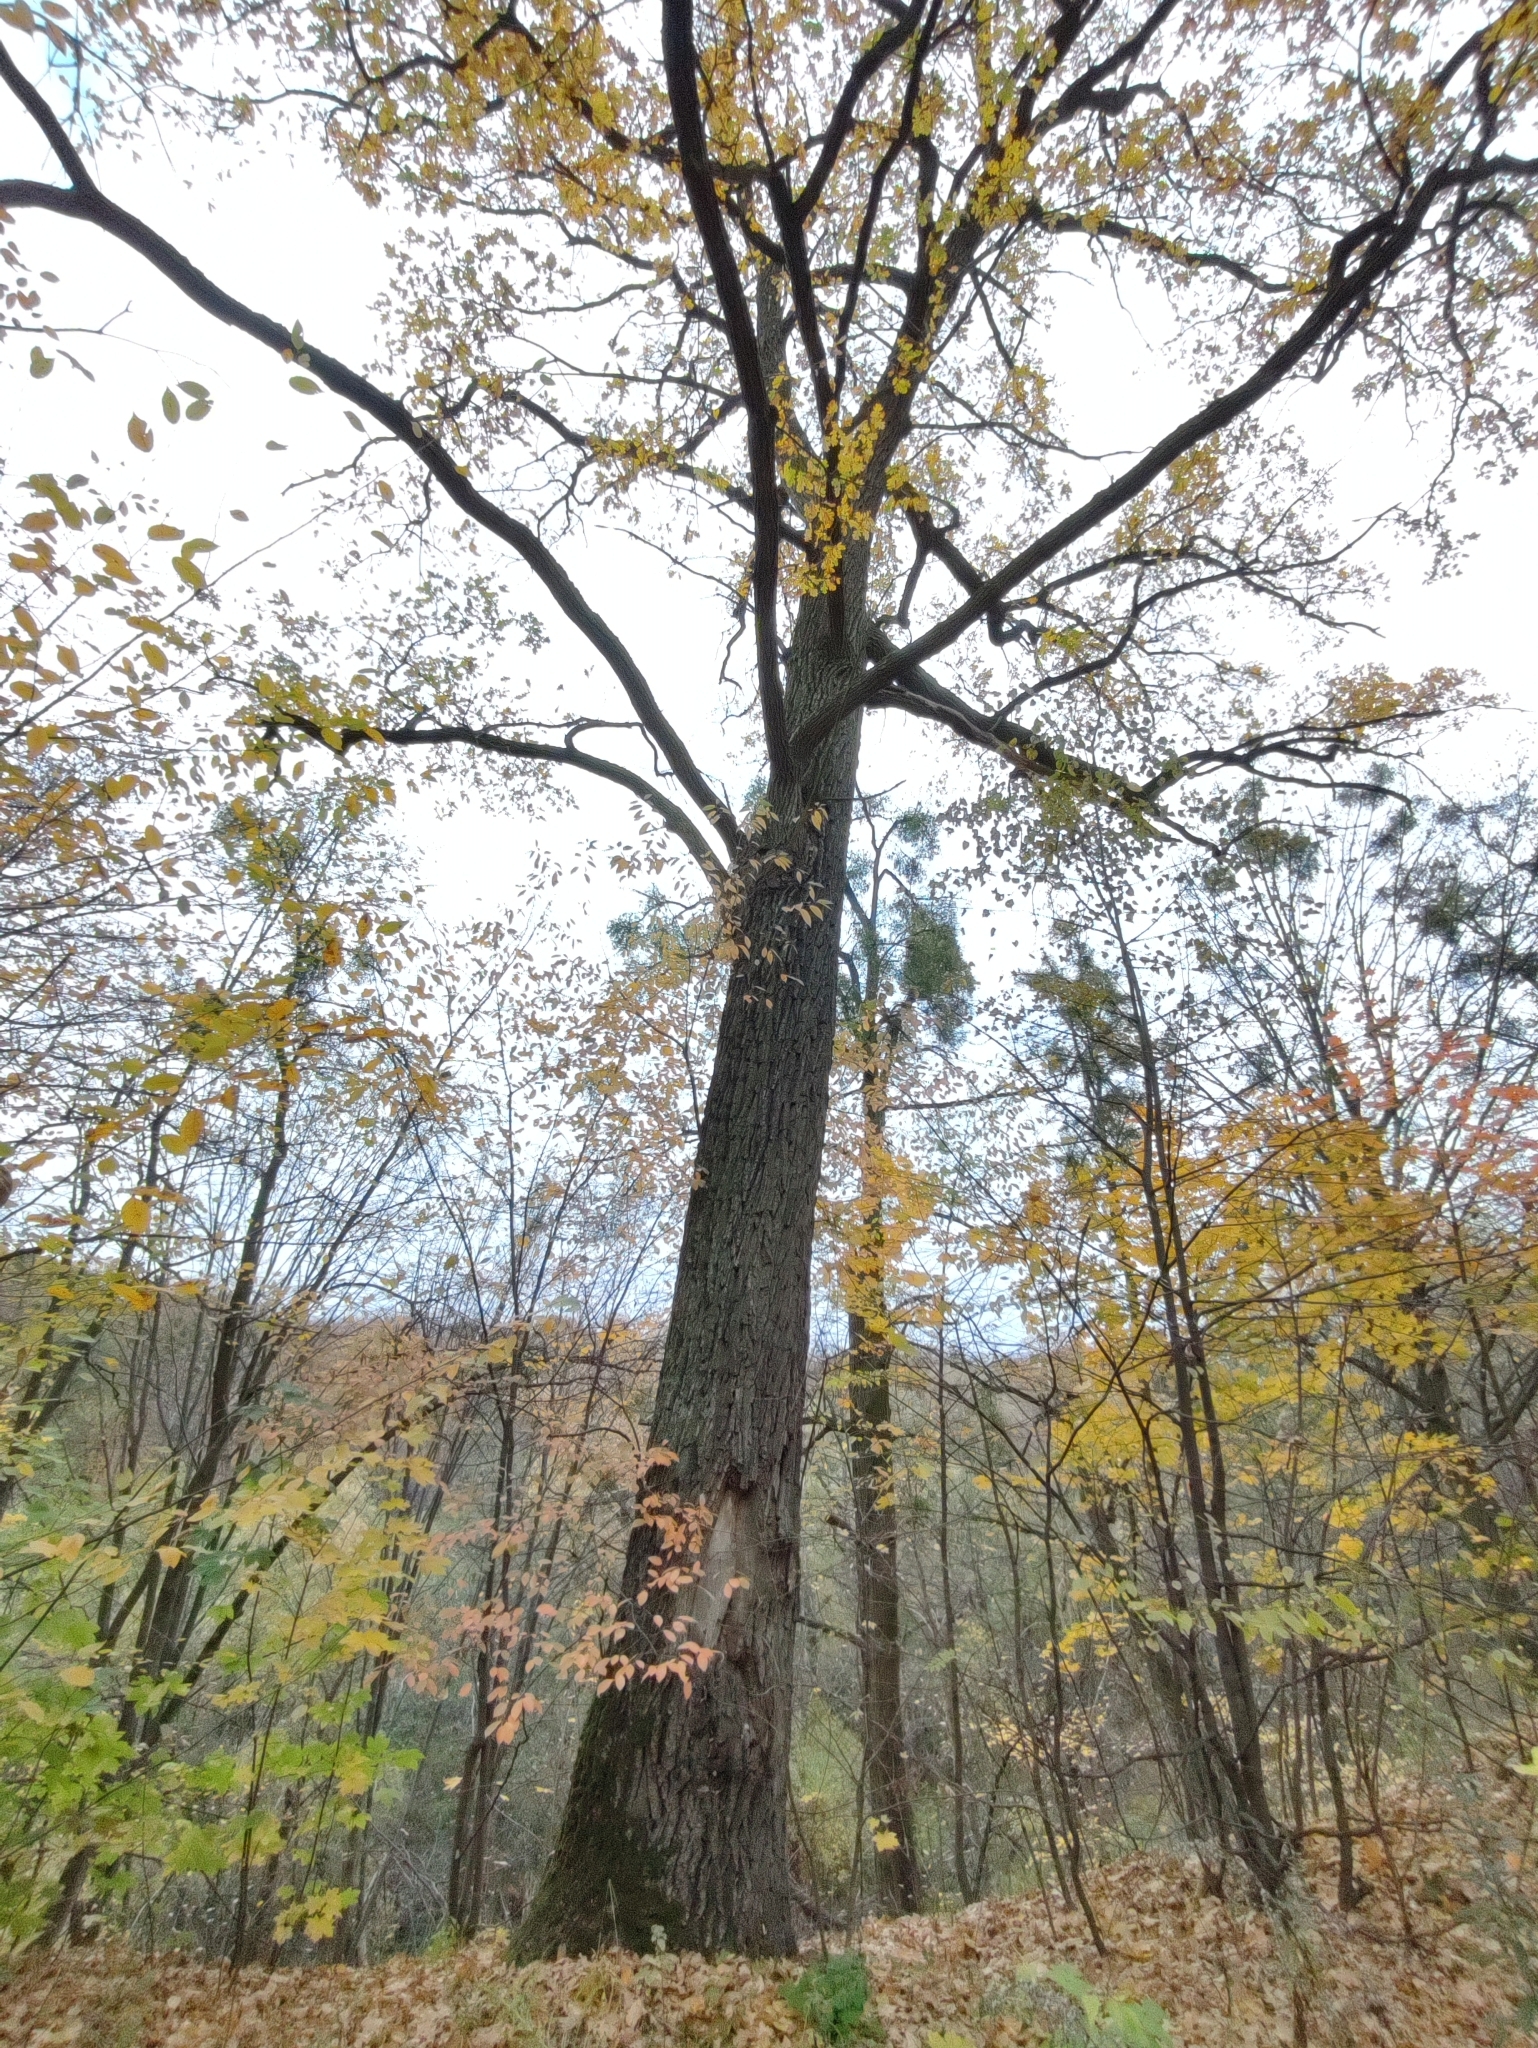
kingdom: Plantae
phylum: Tracheophyta
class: Magnoliopsida
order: Fagales
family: Fagaceae
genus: Quercus
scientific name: Quercus robur
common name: Pedunculate oak
